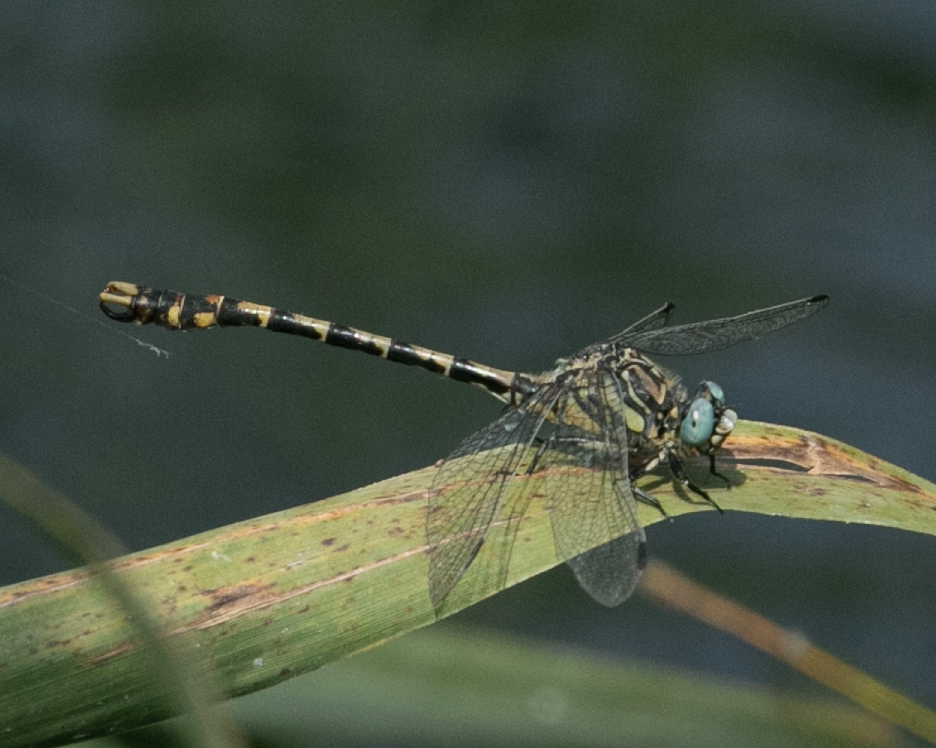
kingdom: Animalia
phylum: Arthropoda
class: Insecta
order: Odonata
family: Gomphidae
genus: Onychogomphus
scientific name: Onychogomphus uncatus
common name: Large pincertail
